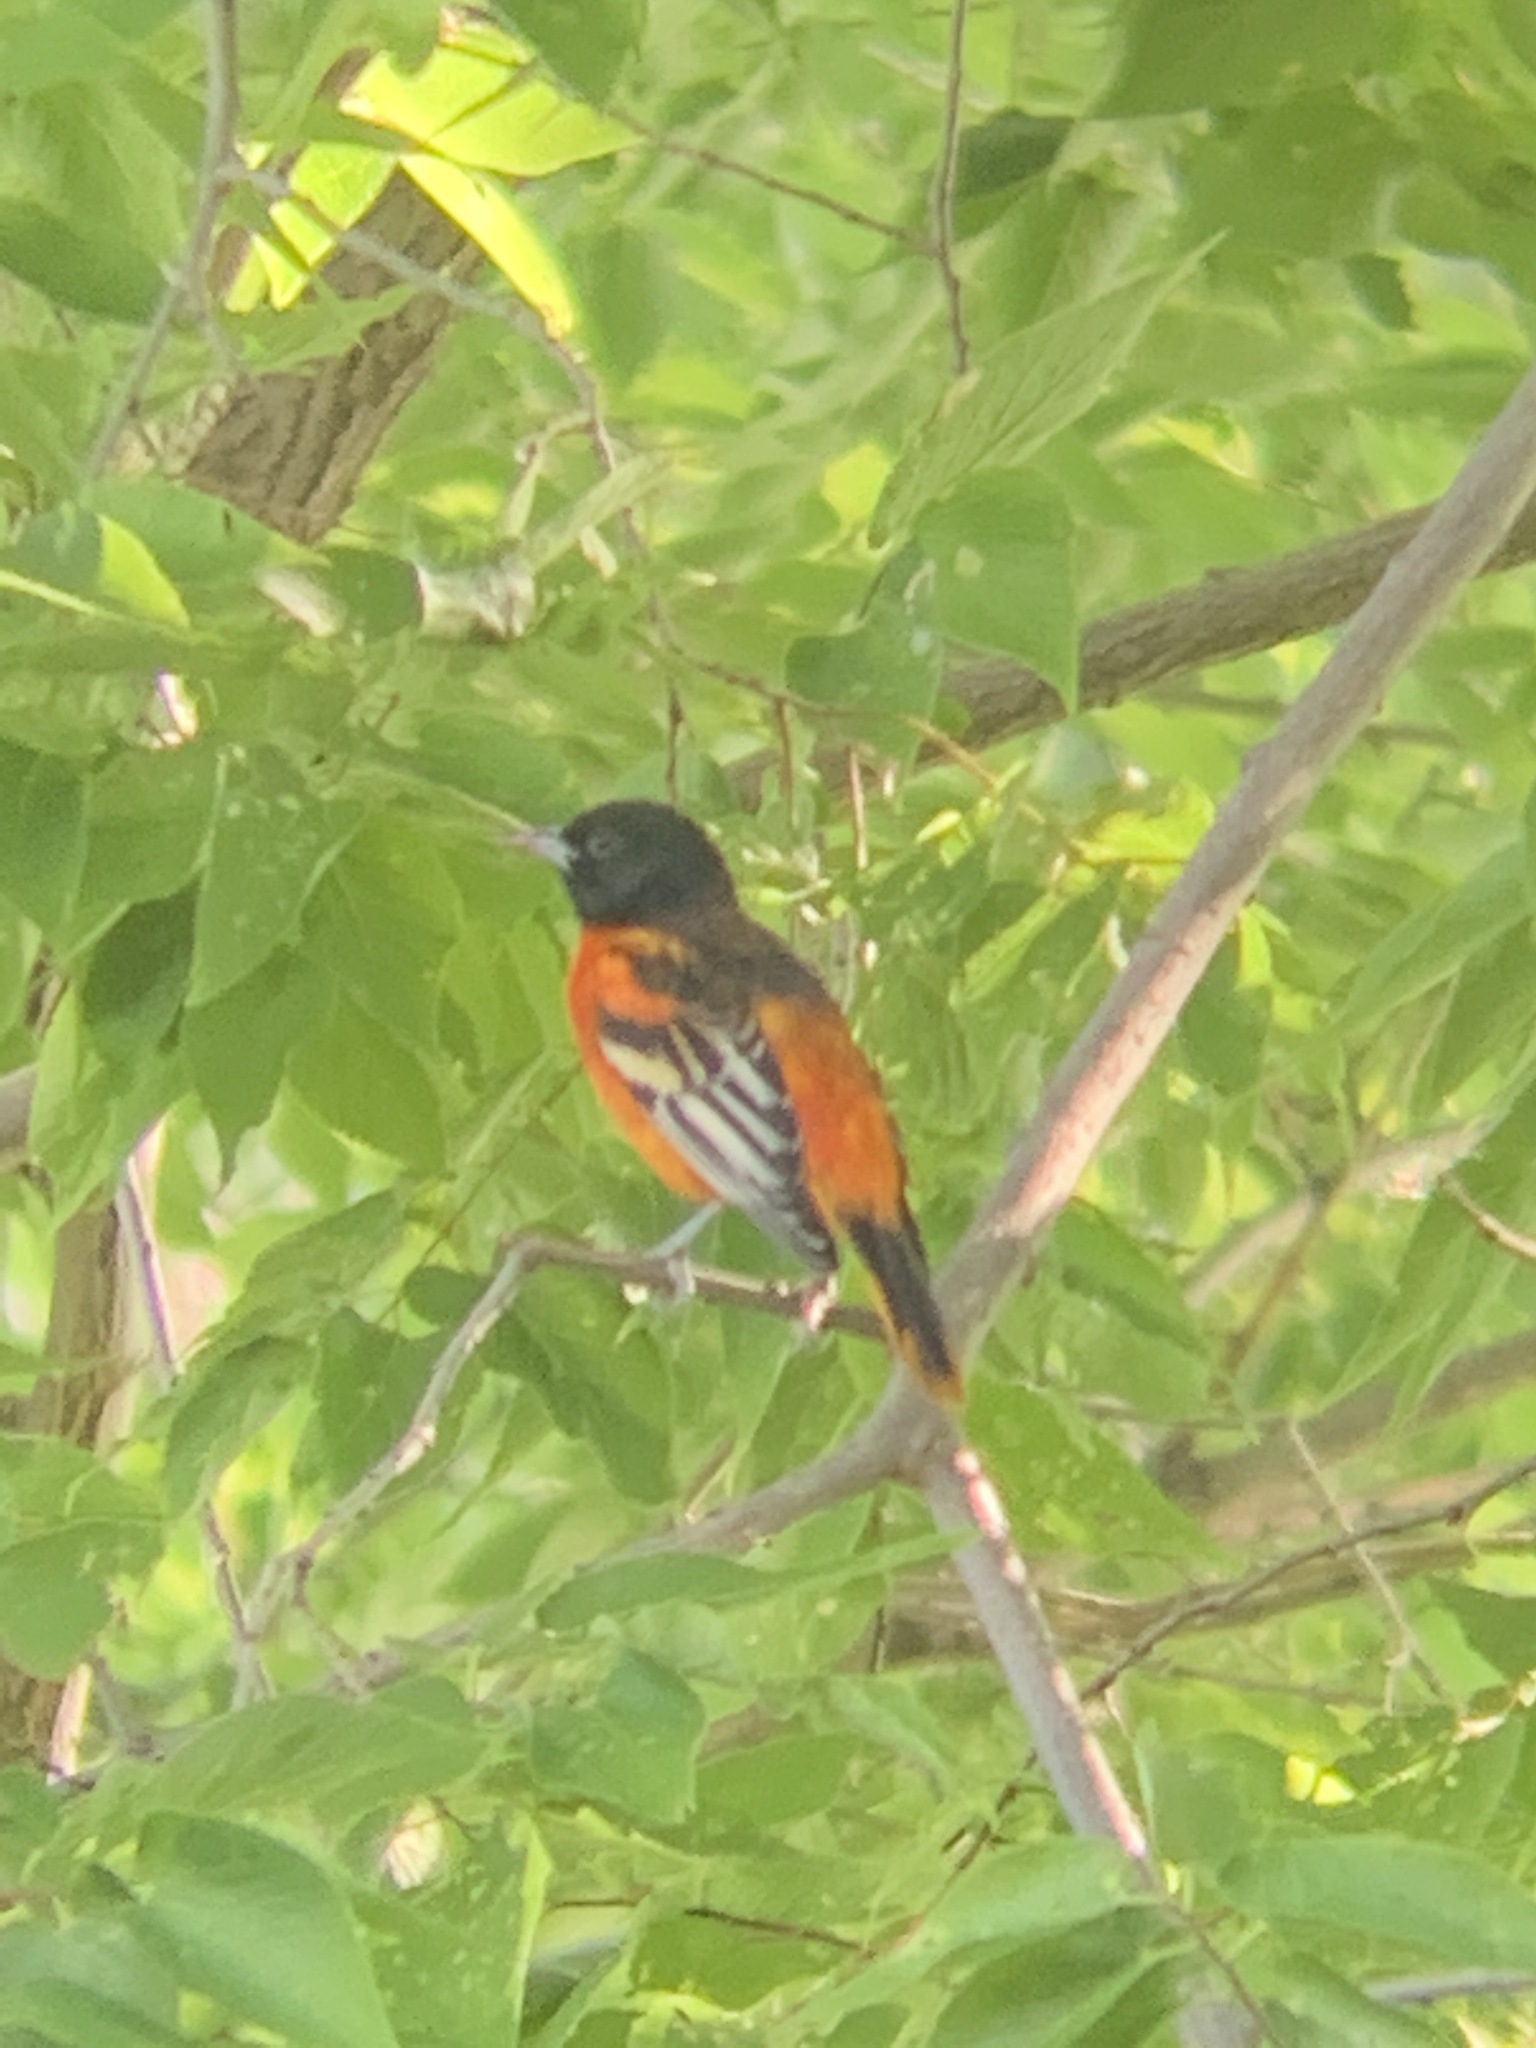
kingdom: Animalia
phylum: Chordata
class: Aves
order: Passeriformes
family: Icteridae
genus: Icterus
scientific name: Icterus galbula
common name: Baltimore oriole
